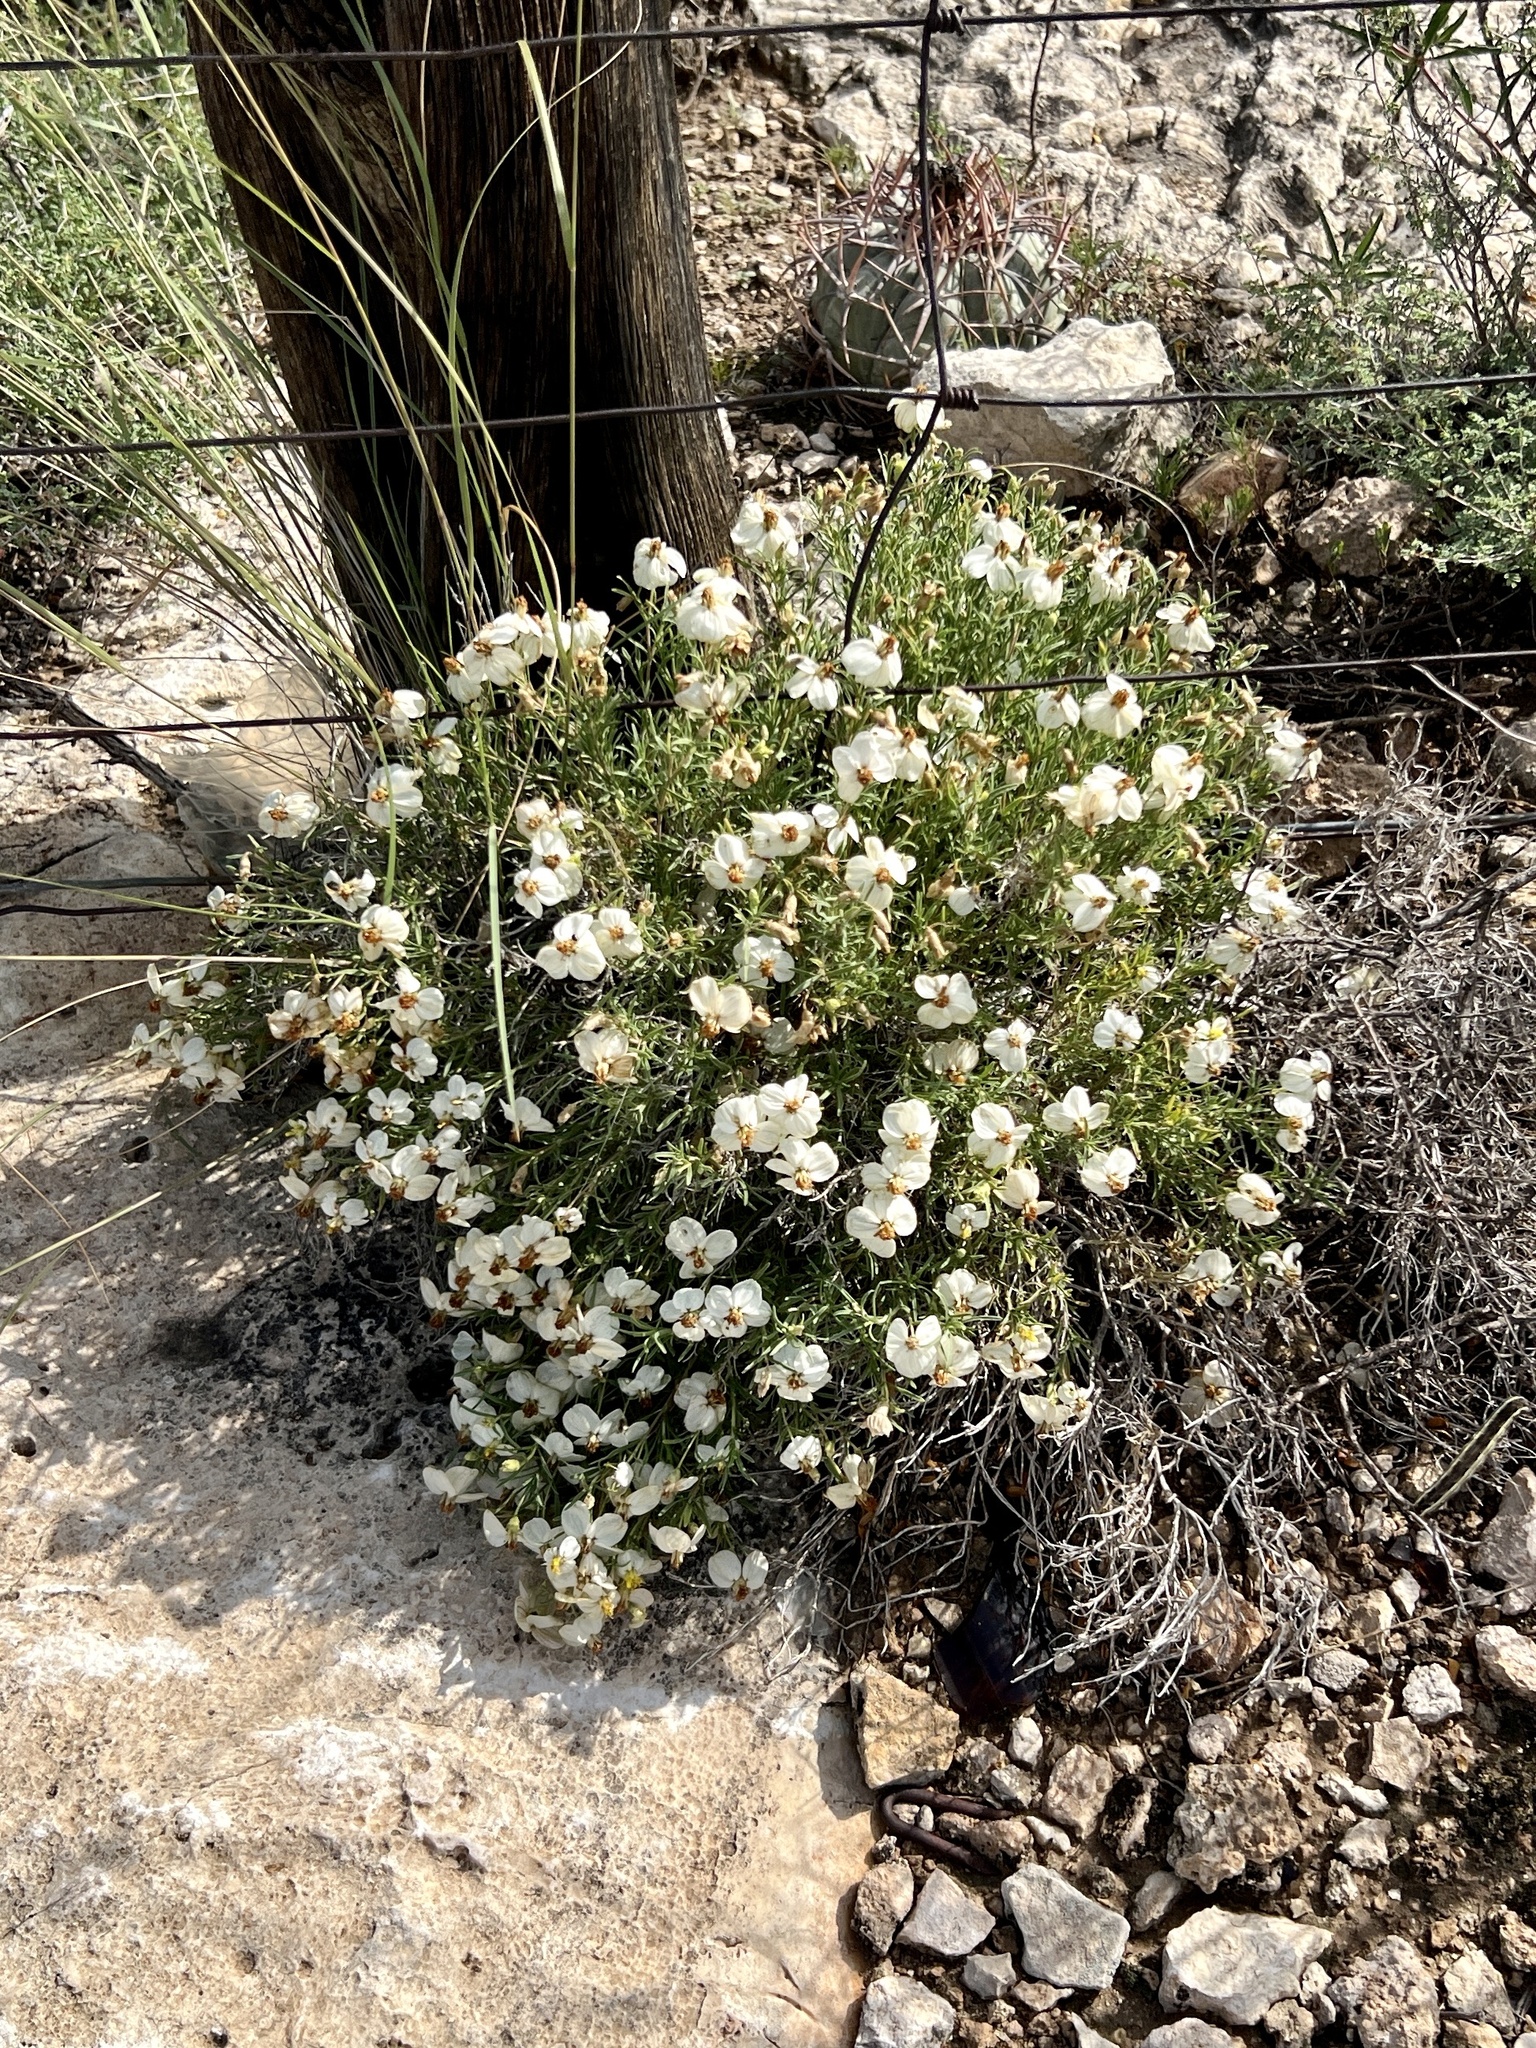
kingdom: Plantae
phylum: Tracheophyta
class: Magnoliopsida
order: Asterales
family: Asteraceae
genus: Zinnia
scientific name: Zinnia acerosa
